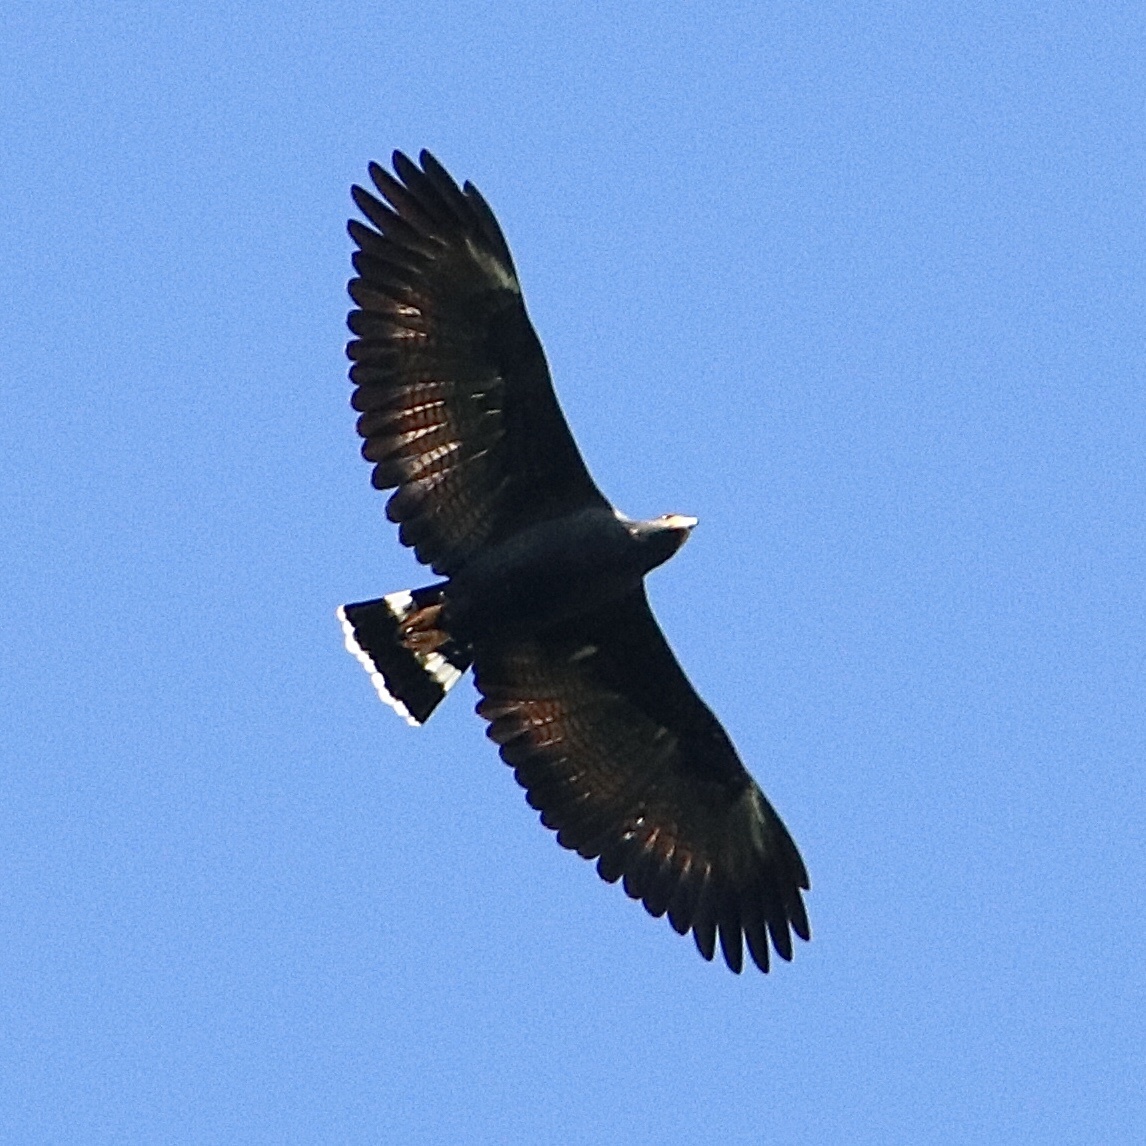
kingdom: Animalia
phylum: Chordata
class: Aves
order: Accipitriformes
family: Accipitridae
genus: Buteogallus
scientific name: Buteogallus anthracinus
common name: Common black hawk
